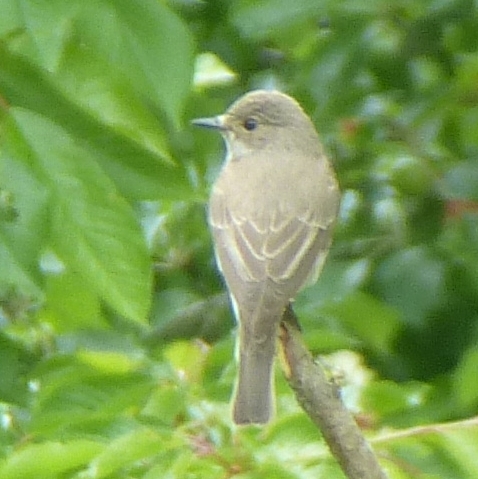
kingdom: Animalia
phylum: Chordata
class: Aves
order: Passeriformes
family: Muscicapidae
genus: Muscicapa
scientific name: Muscicapa striata
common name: Spotted flycatcher
